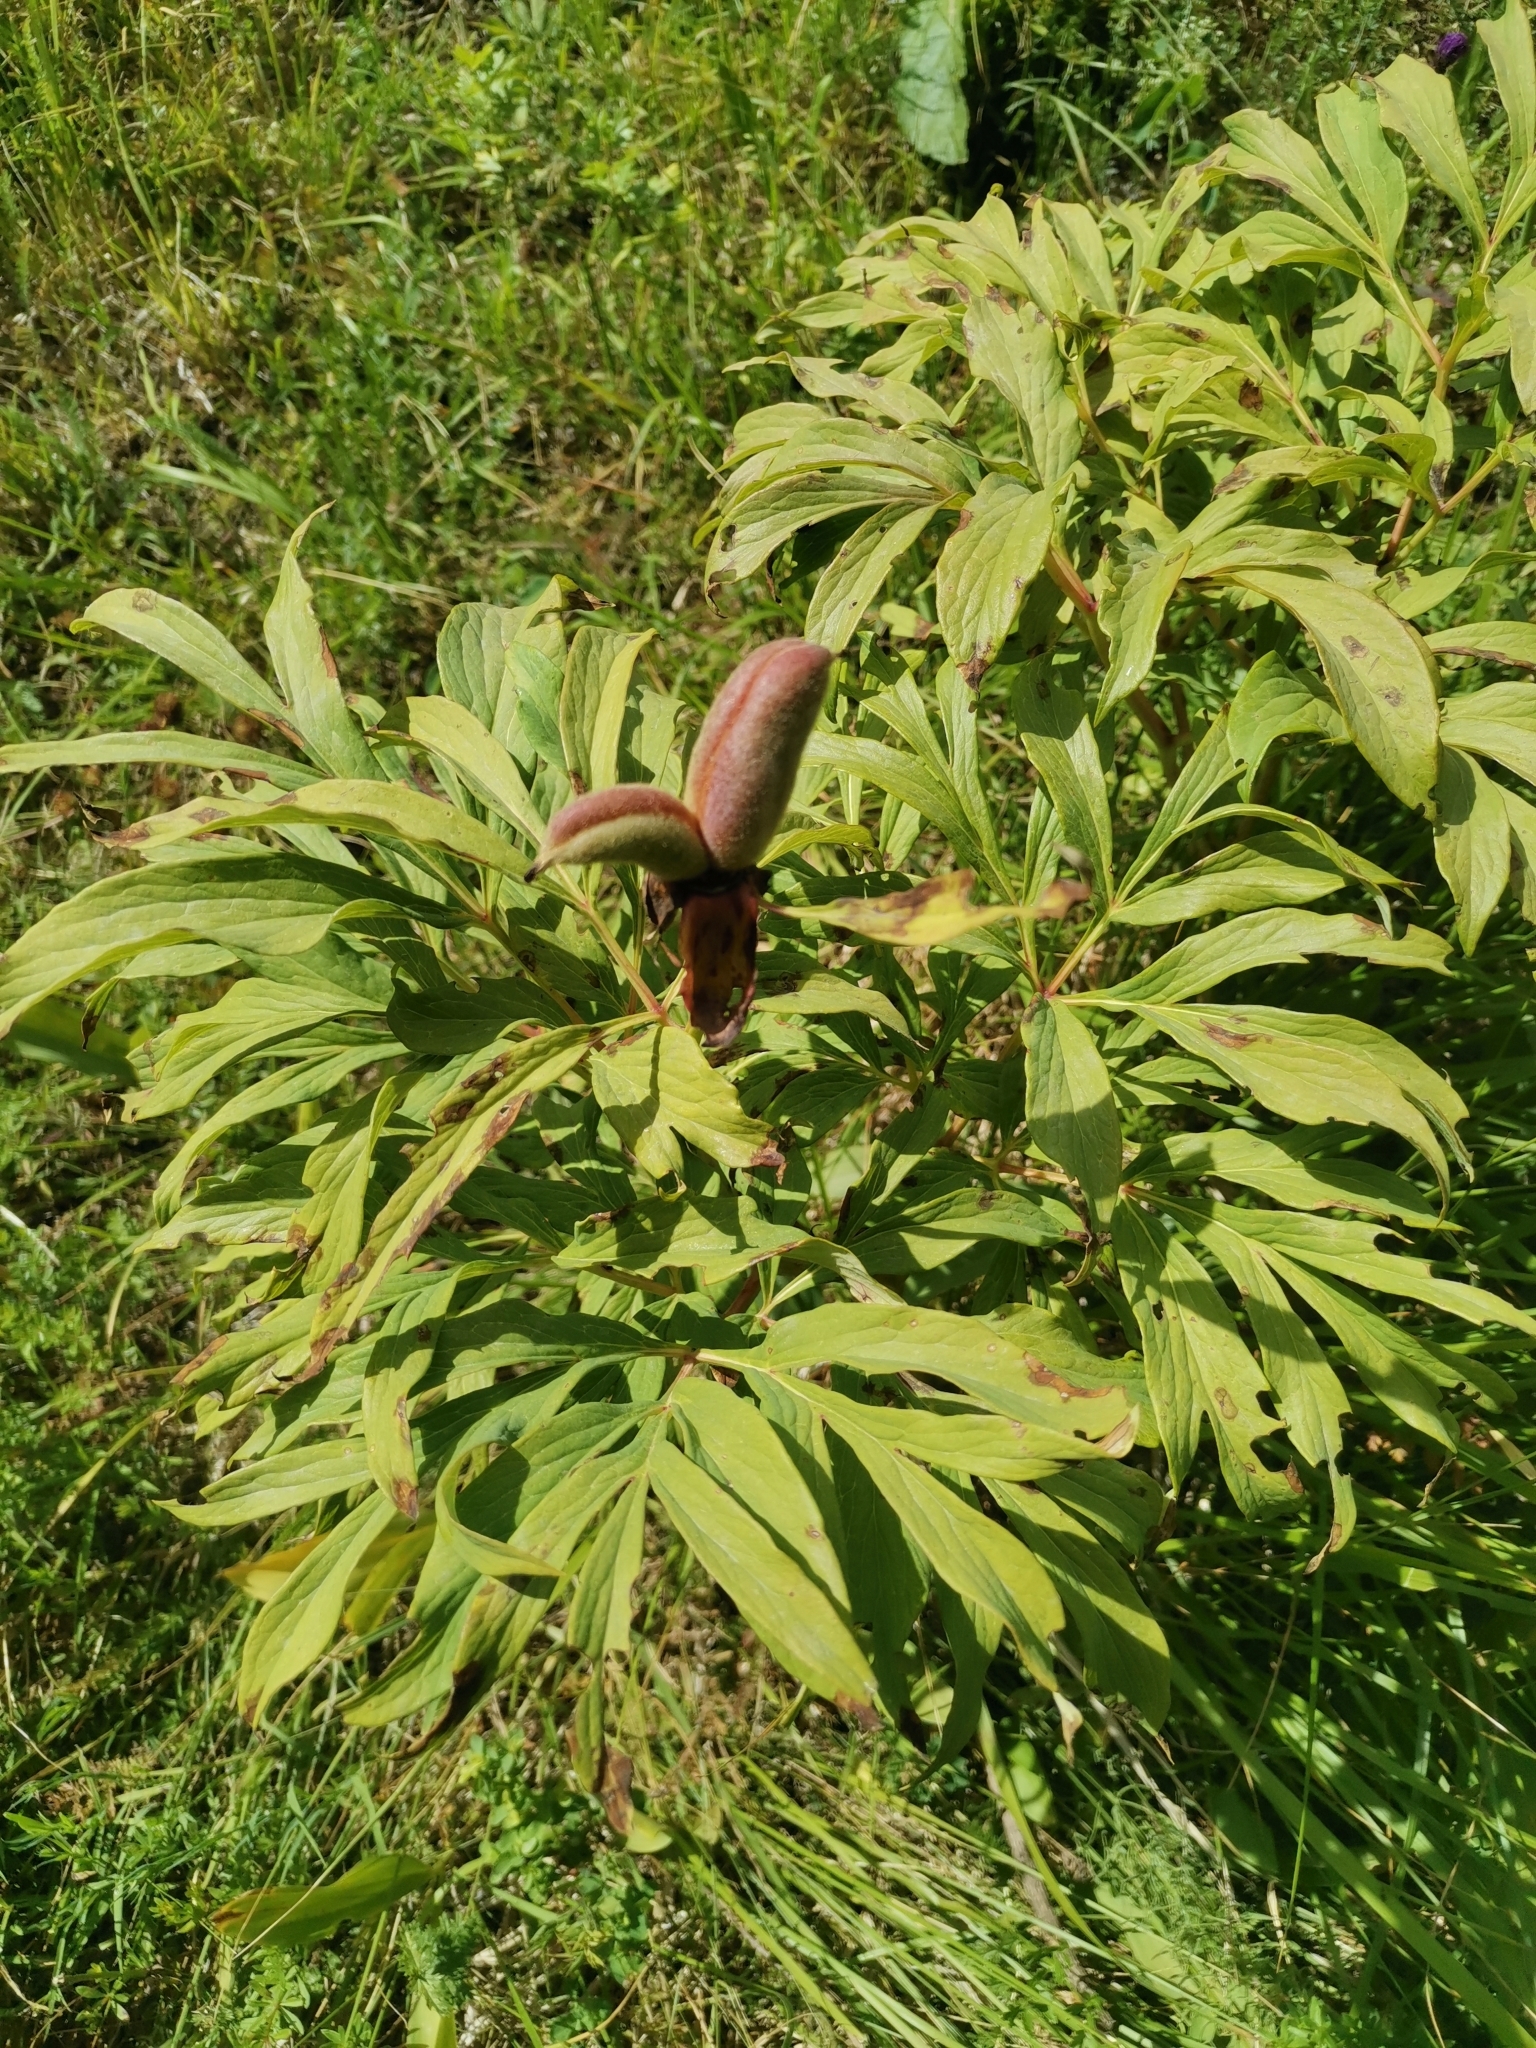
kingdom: Plantae
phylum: Tracheophyta
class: Magnoliopsida
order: Saxifragales
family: Paeoniaceae
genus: Paeonia
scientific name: Paeonia officinalis
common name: Common peony
